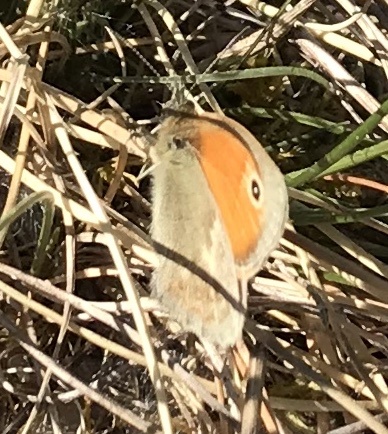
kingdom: Animalia
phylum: Arthropoda
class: Insecta
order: Lepidoptera
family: Nymphalidae
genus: Coenonympha
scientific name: Coenonympha pamphilus
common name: Small heath
